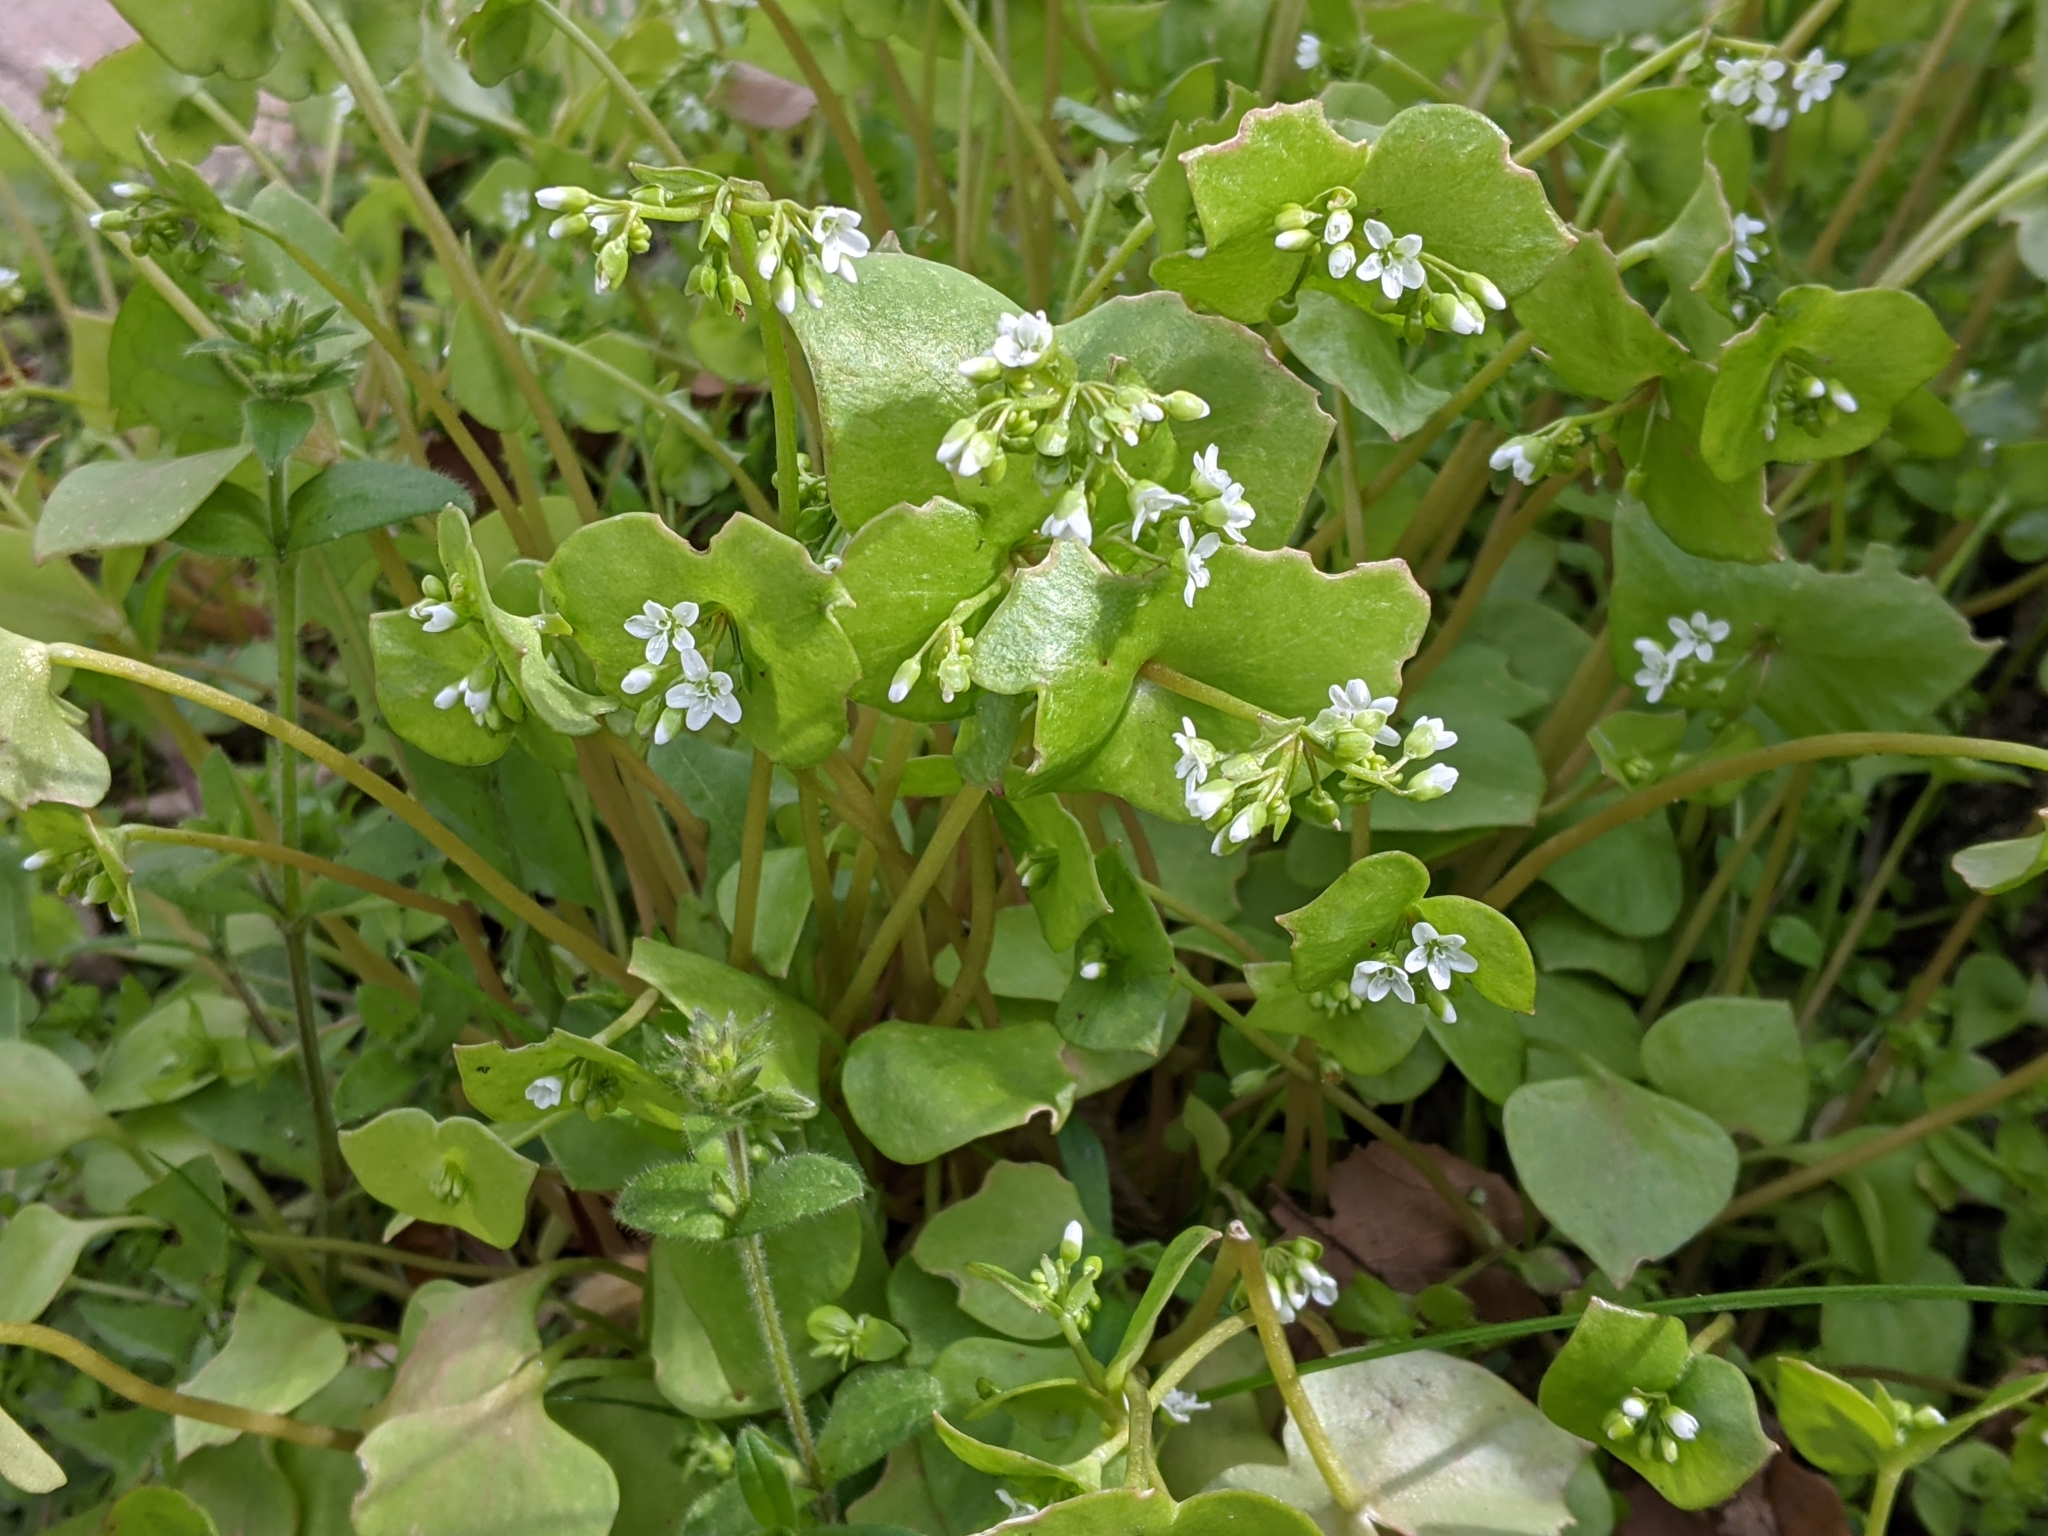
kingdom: Plantae
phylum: Tracheophyta
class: Magnoliopsida
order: Caryophyllales
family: Montiaceae
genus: Claytonia
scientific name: Claytonia perfoliata
